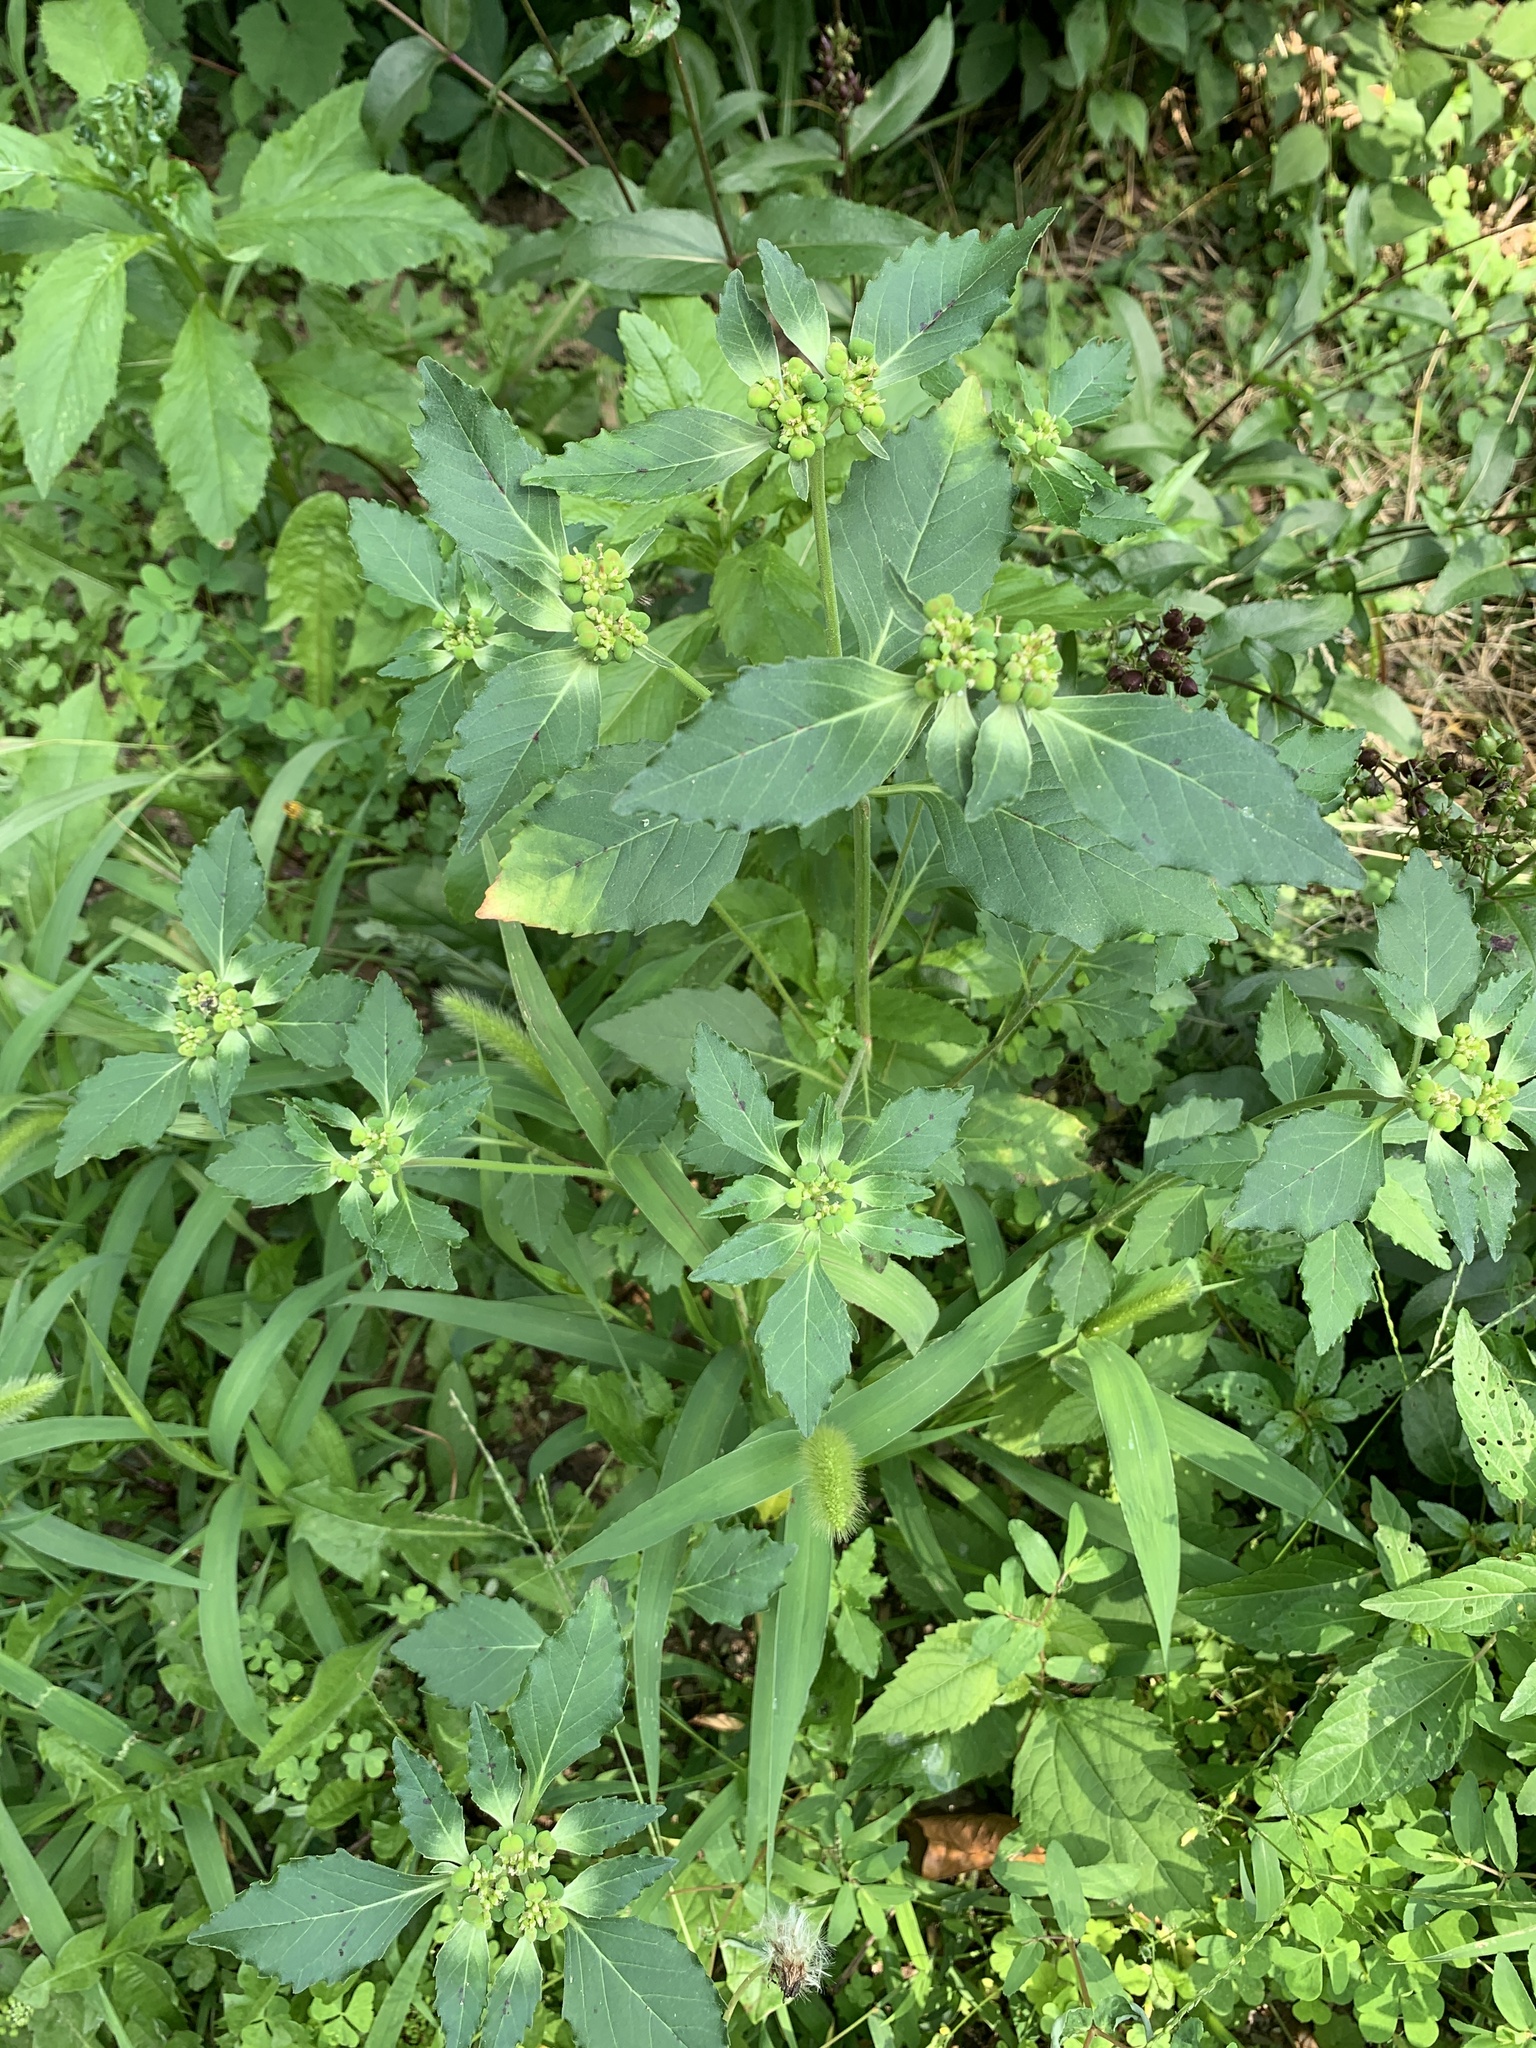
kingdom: Plantae
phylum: Tracheophyta
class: Magnoliopsida
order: Malpighiales
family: Euphorbiaceae
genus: Euphorbia
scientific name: Euphorbia dentata
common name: Dentate spurge
